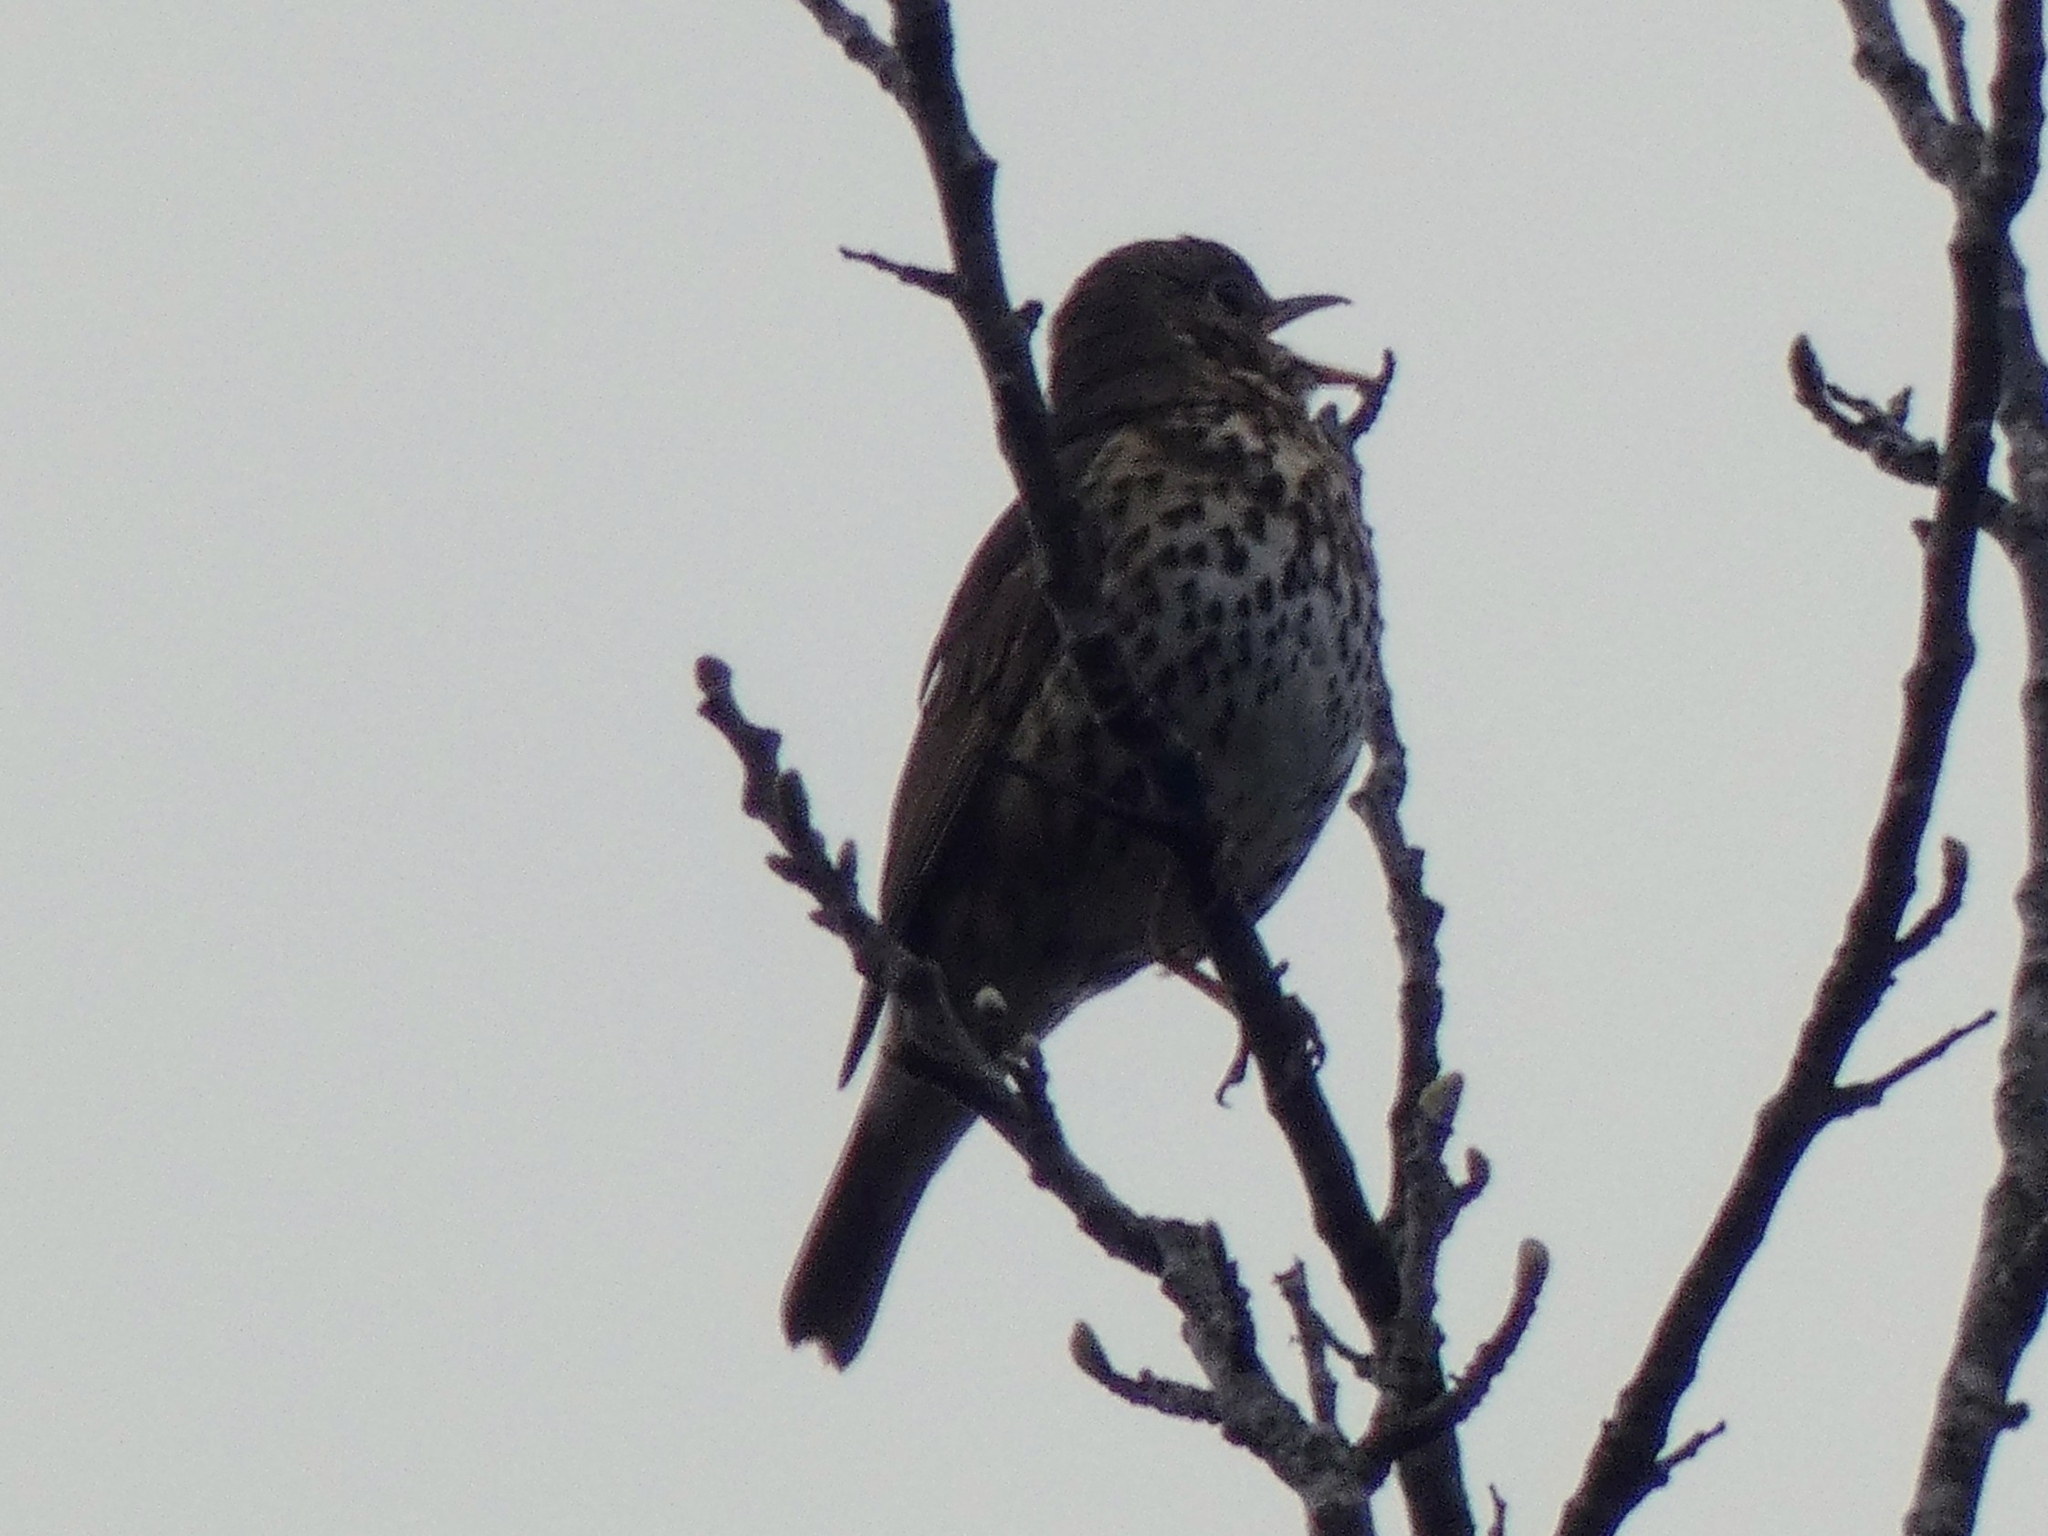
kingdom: Animalia
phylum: Chordata
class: Aves
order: Passeriformes
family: Turdidae
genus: Turdus
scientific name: Turdus philomelos
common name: Song thrush
